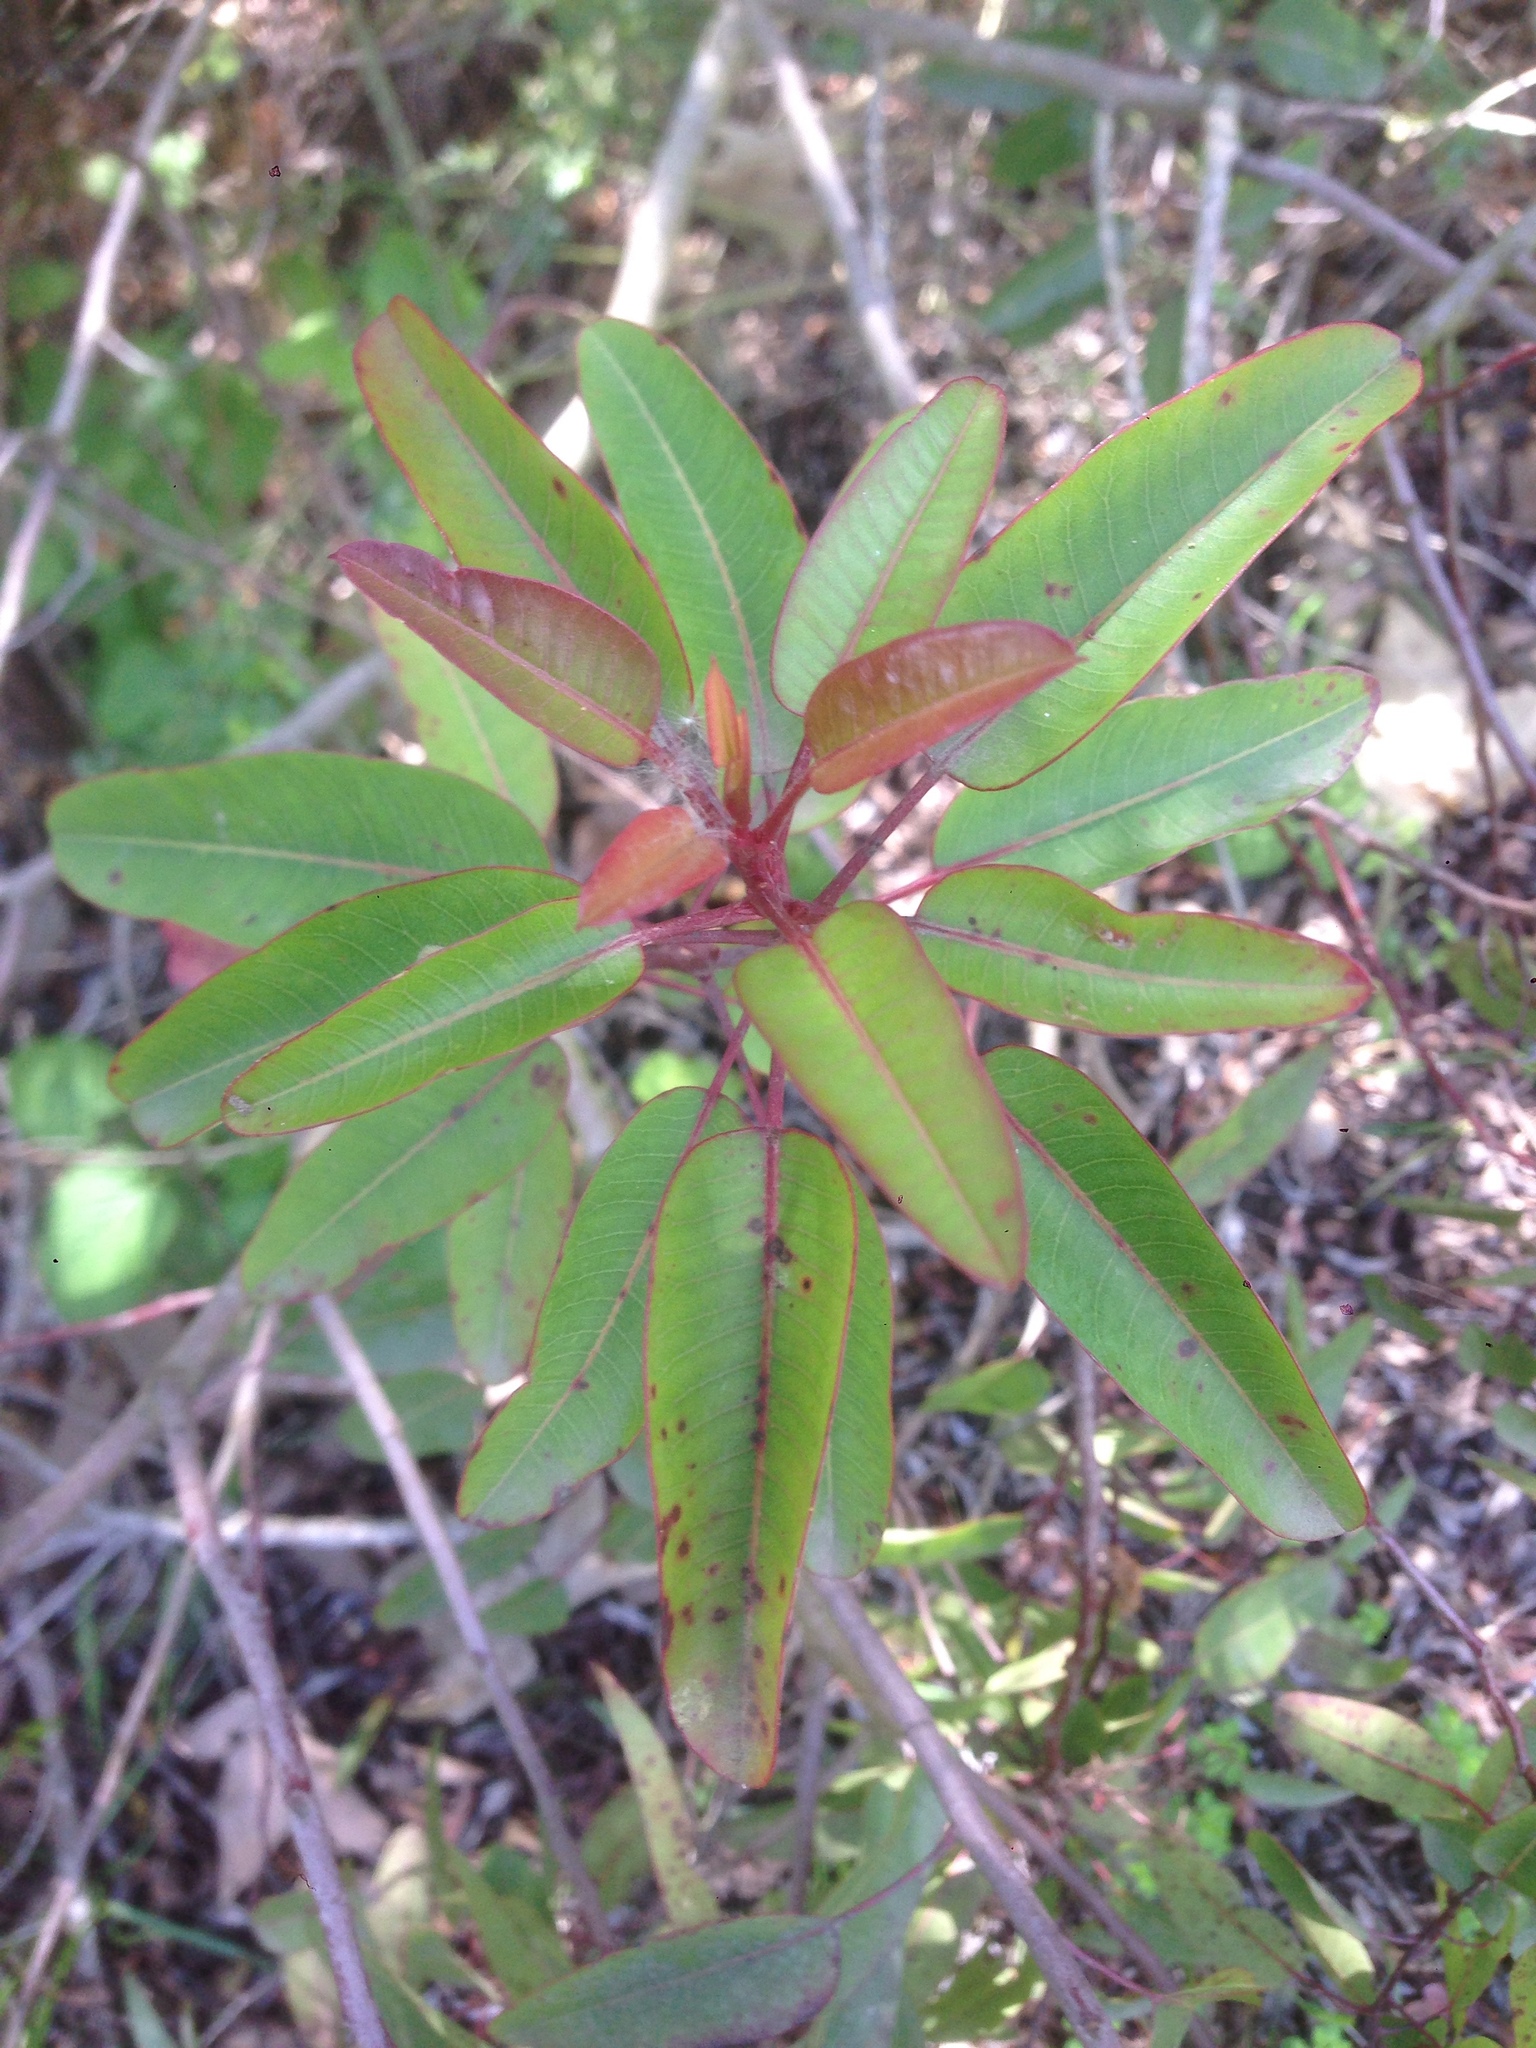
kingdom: Plantae
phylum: Tracheophyta
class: Magnoliopsida
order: Sapindales
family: Anacardiaceae
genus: Malosma
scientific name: Malosma laurina
